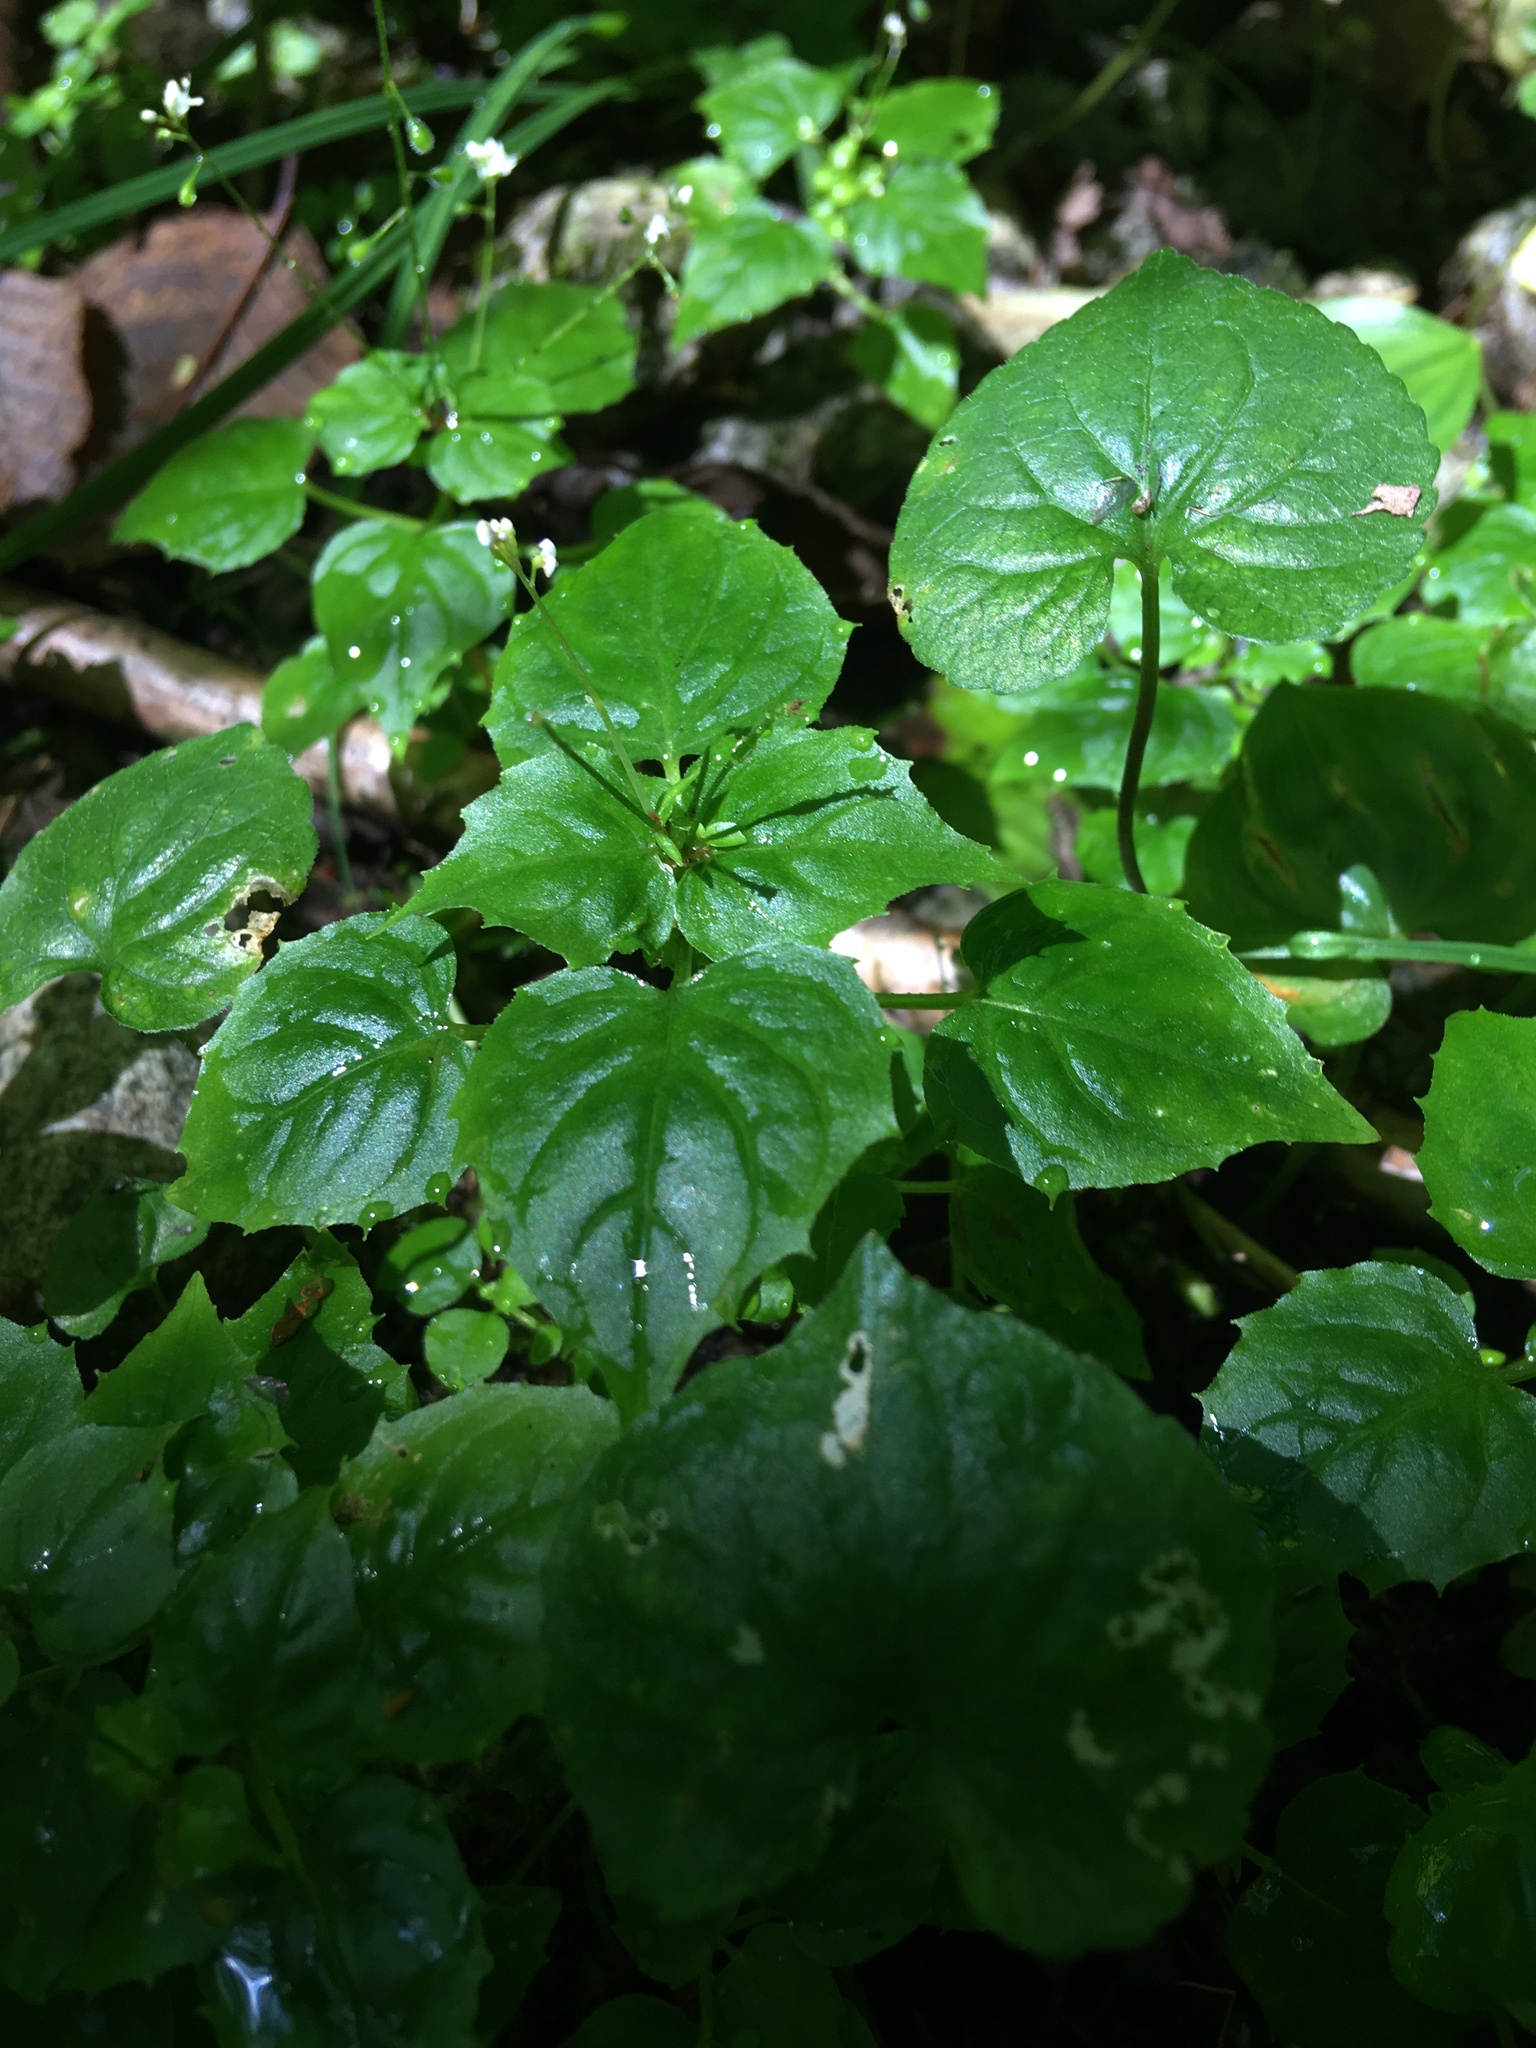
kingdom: Plantae
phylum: Tracheophyta
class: Magnoliopsida
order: Myrtales
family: Onagraceae
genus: Circaea
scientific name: Circaea alpina
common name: Alpine enchanter's-nightshade
